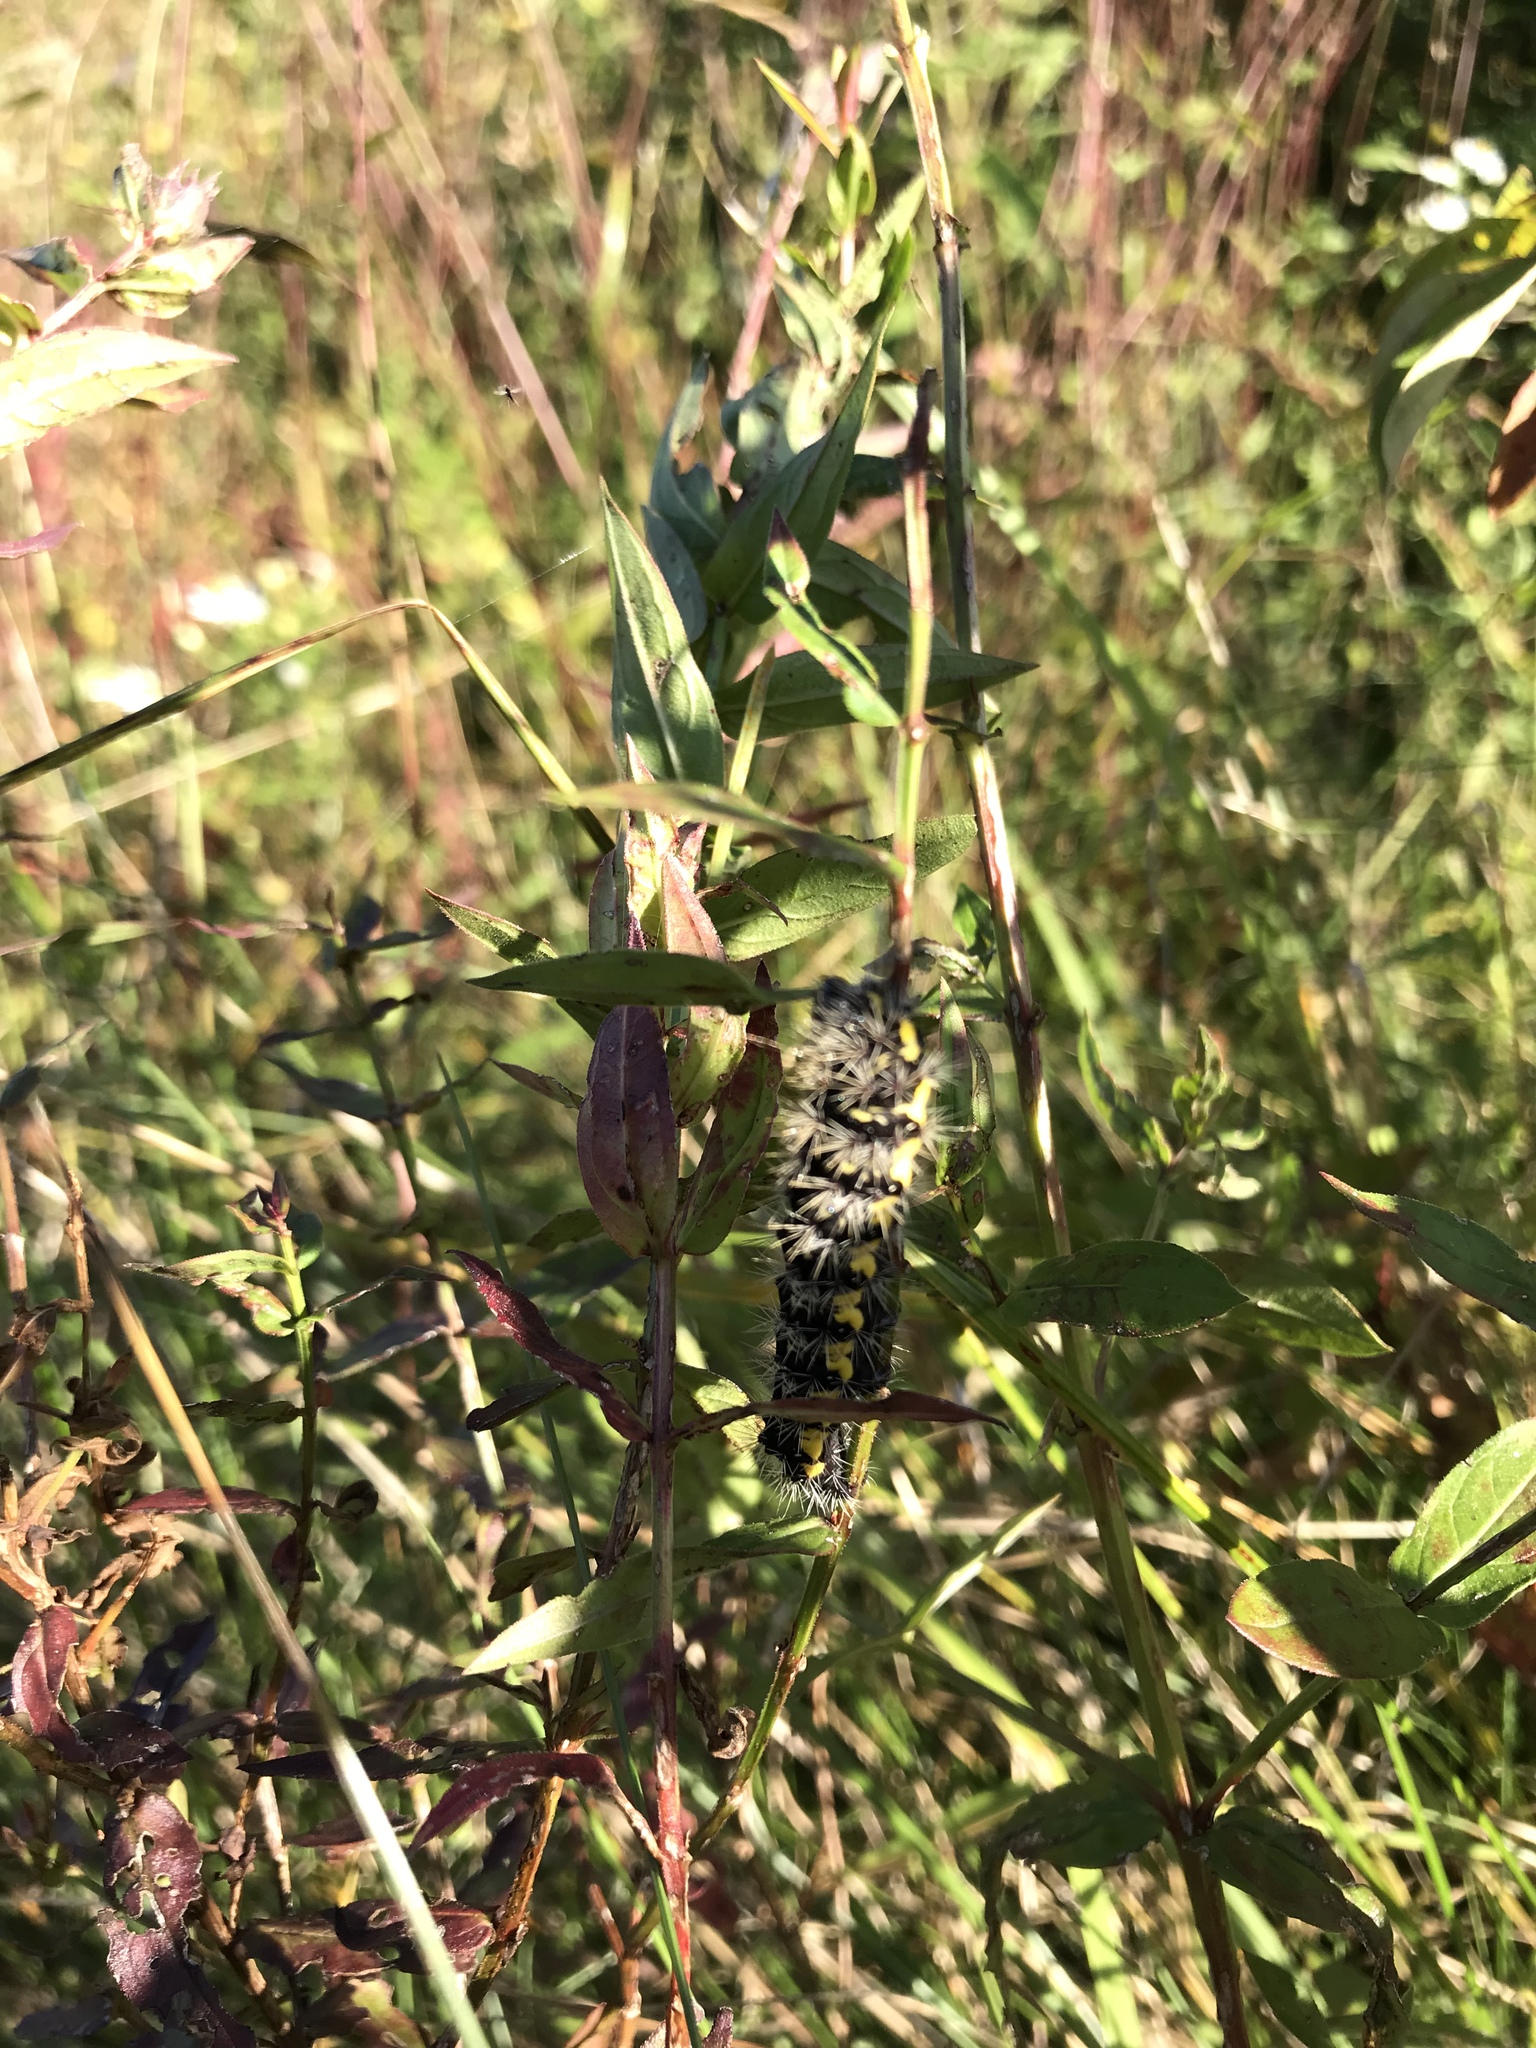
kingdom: Animalia
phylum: Arthropoda
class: Insecta
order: Lepidoptera
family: Noctuidae
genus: Acronicta
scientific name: Acronicta oblinita
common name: Smeared dagger
